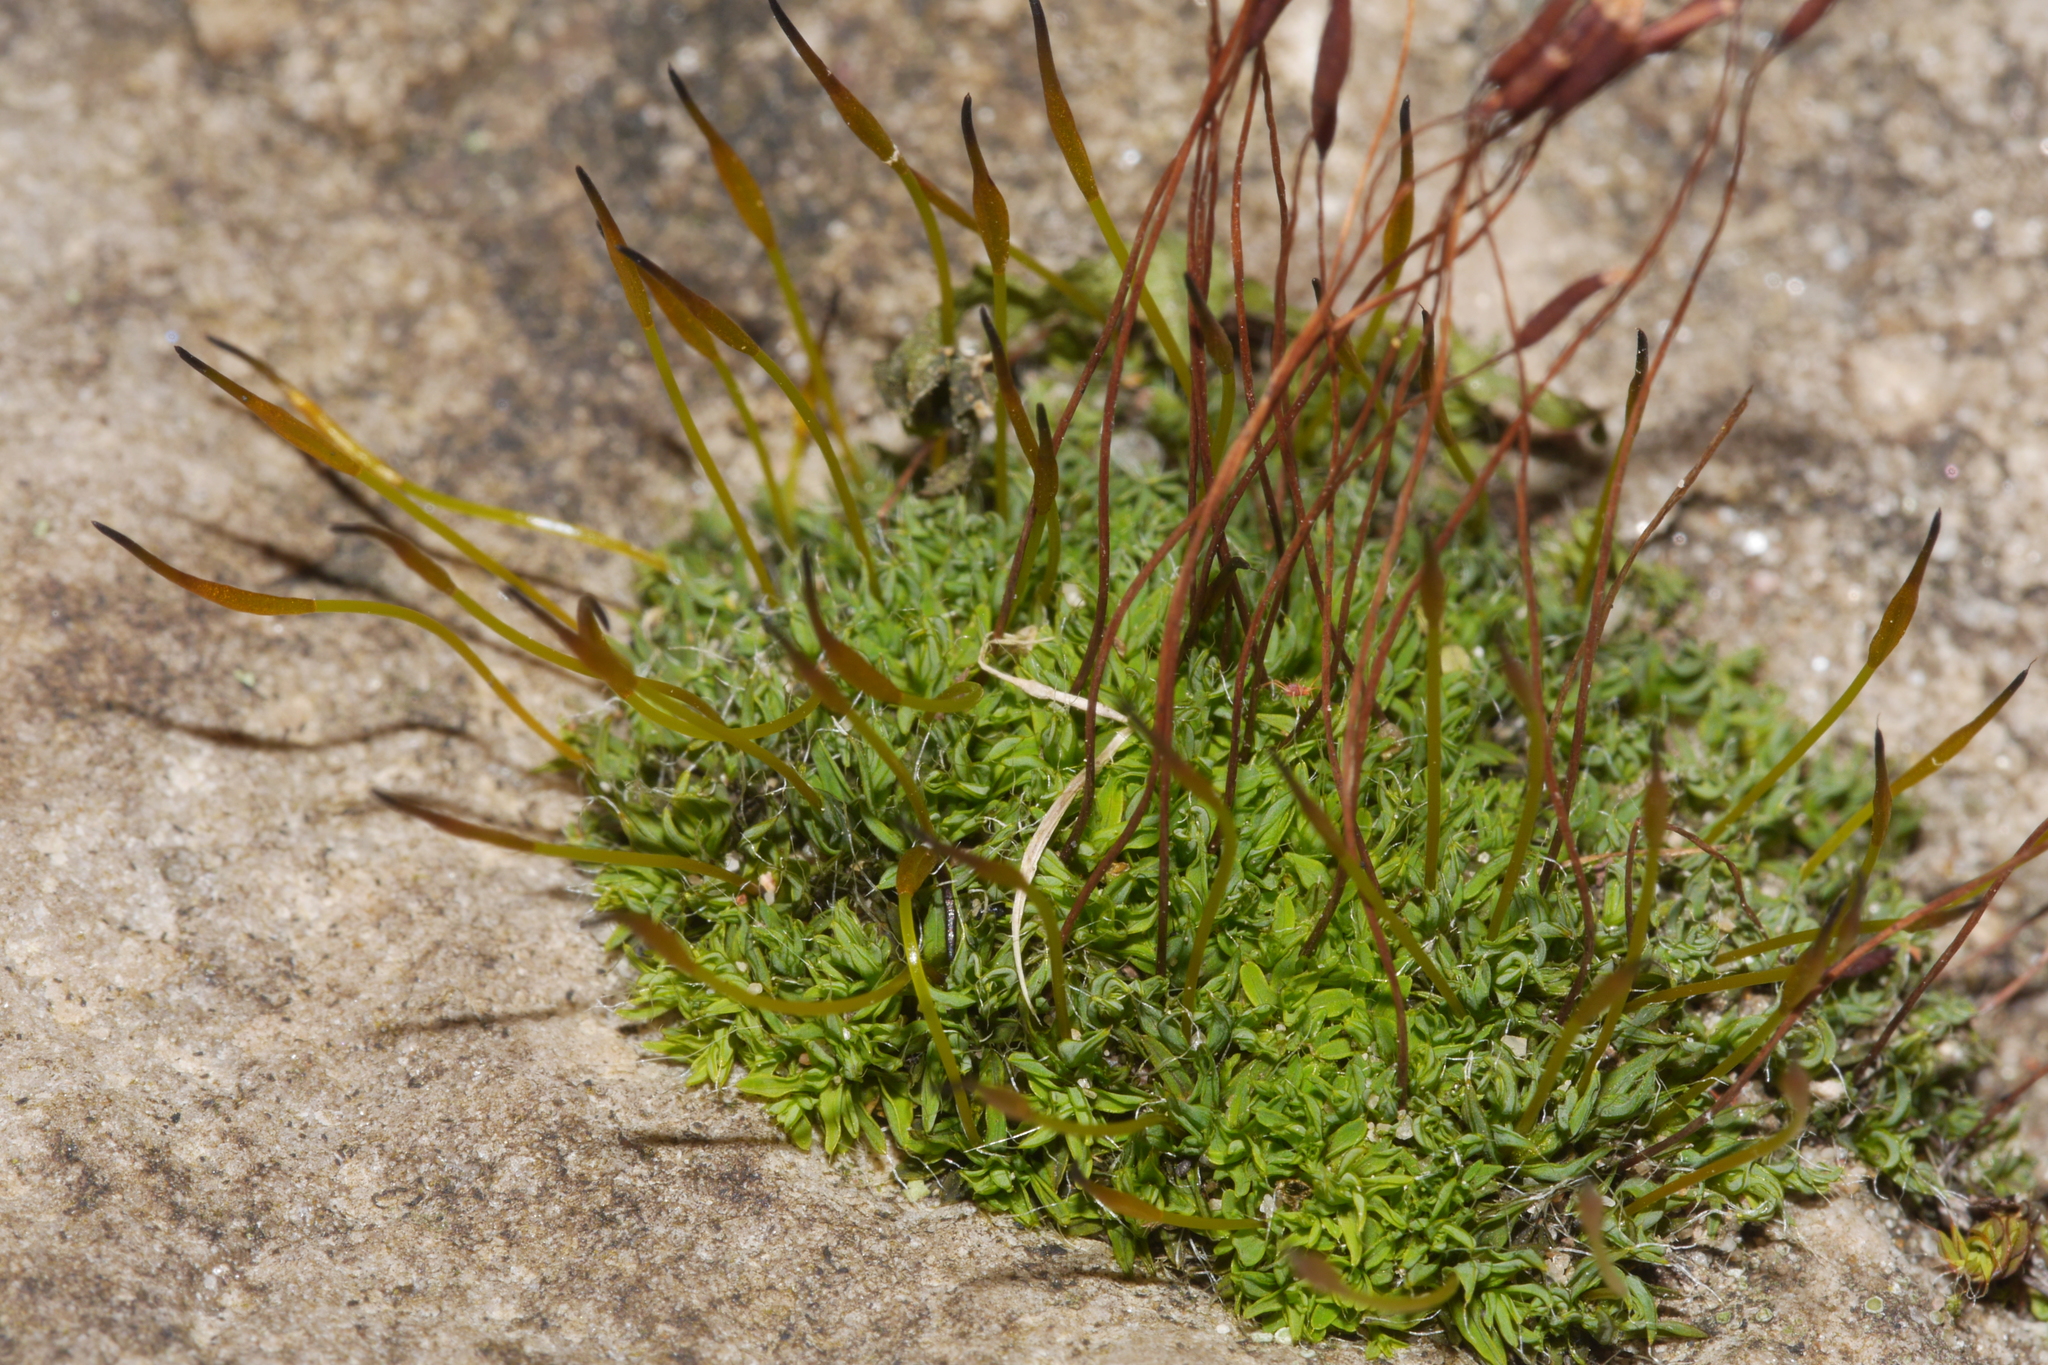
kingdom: Plantae
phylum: Bryophyta
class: Bryopsida
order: Pottiales
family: Pottiaceae
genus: Tortula
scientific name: Tortula muralis
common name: Wall screw-moss
